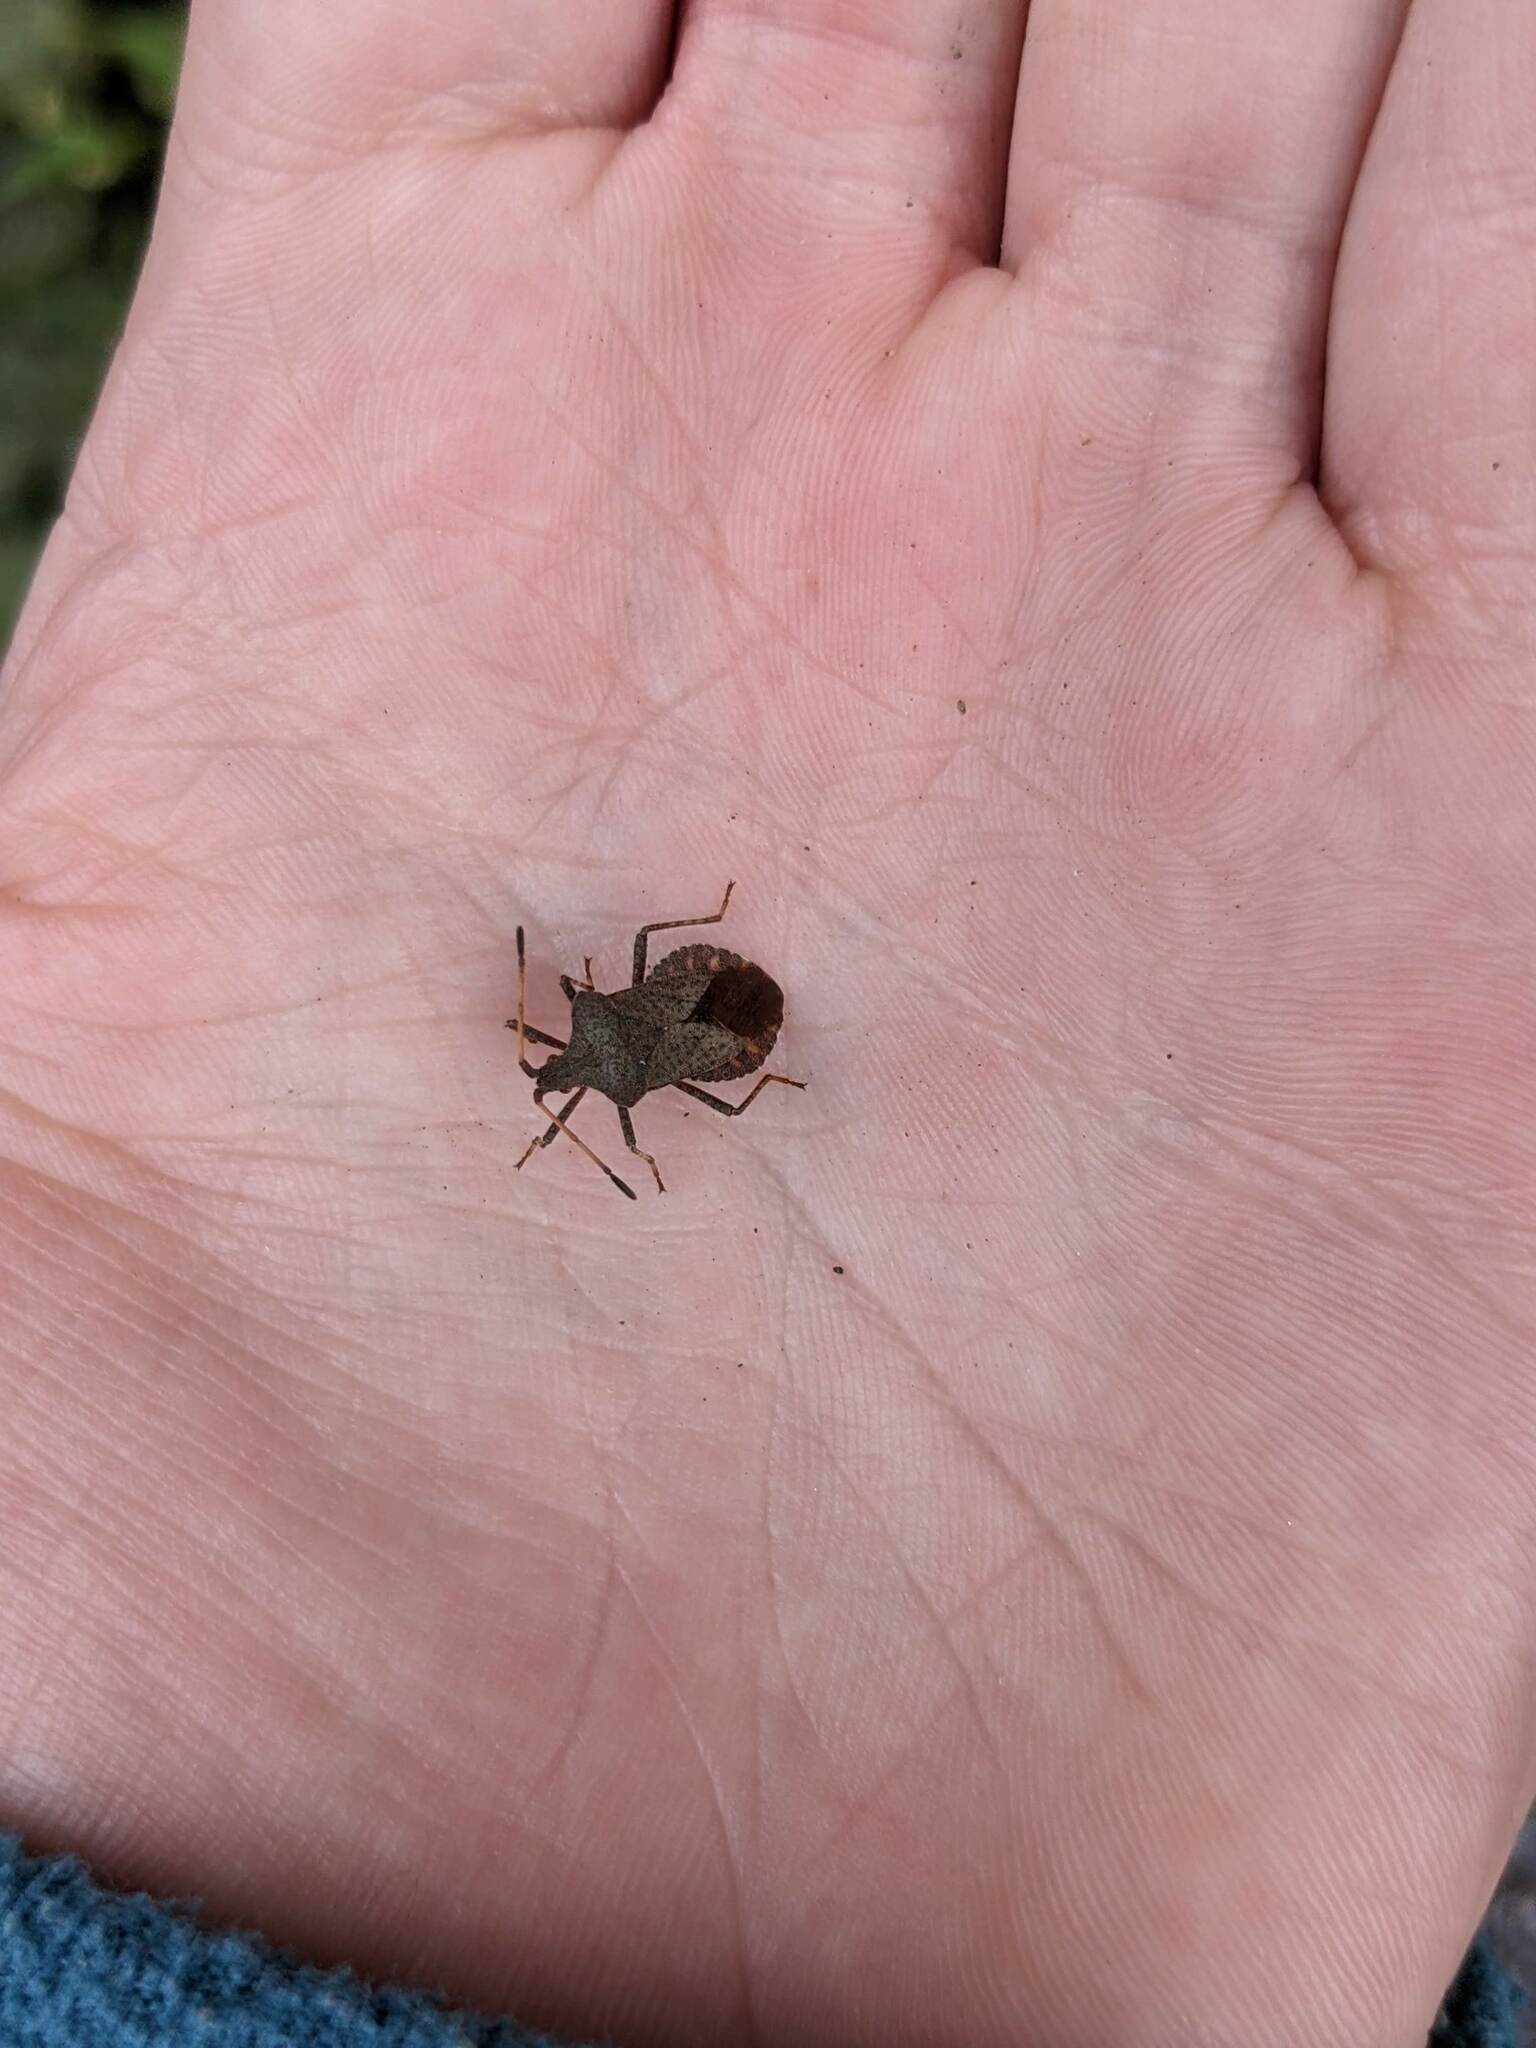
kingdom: Animalia
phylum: Arthropoda
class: Insecta
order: Hemiptera
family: Coreidae
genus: Coreus
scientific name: Coreus marginatus
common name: Dock bug
